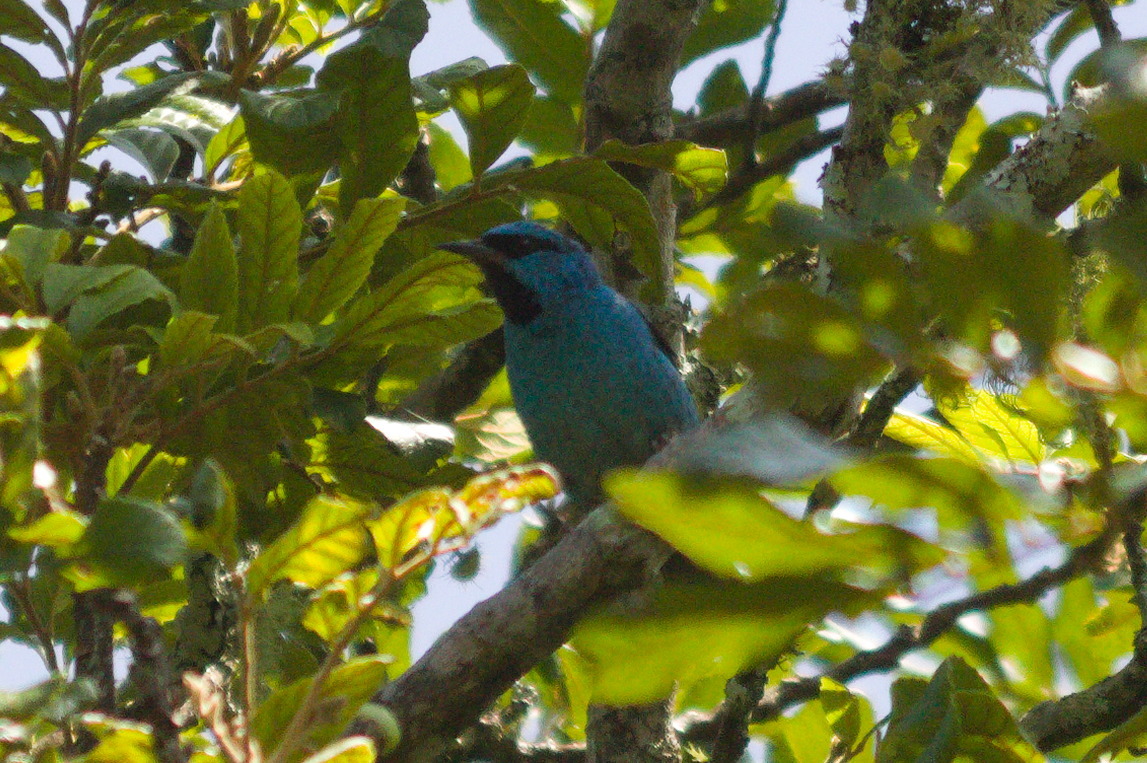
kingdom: Animalia
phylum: Chordata
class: Aves
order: Passeriformes
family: Thraupidae
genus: Dacnis
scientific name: Dacnis cayana
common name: Blue dacnis
